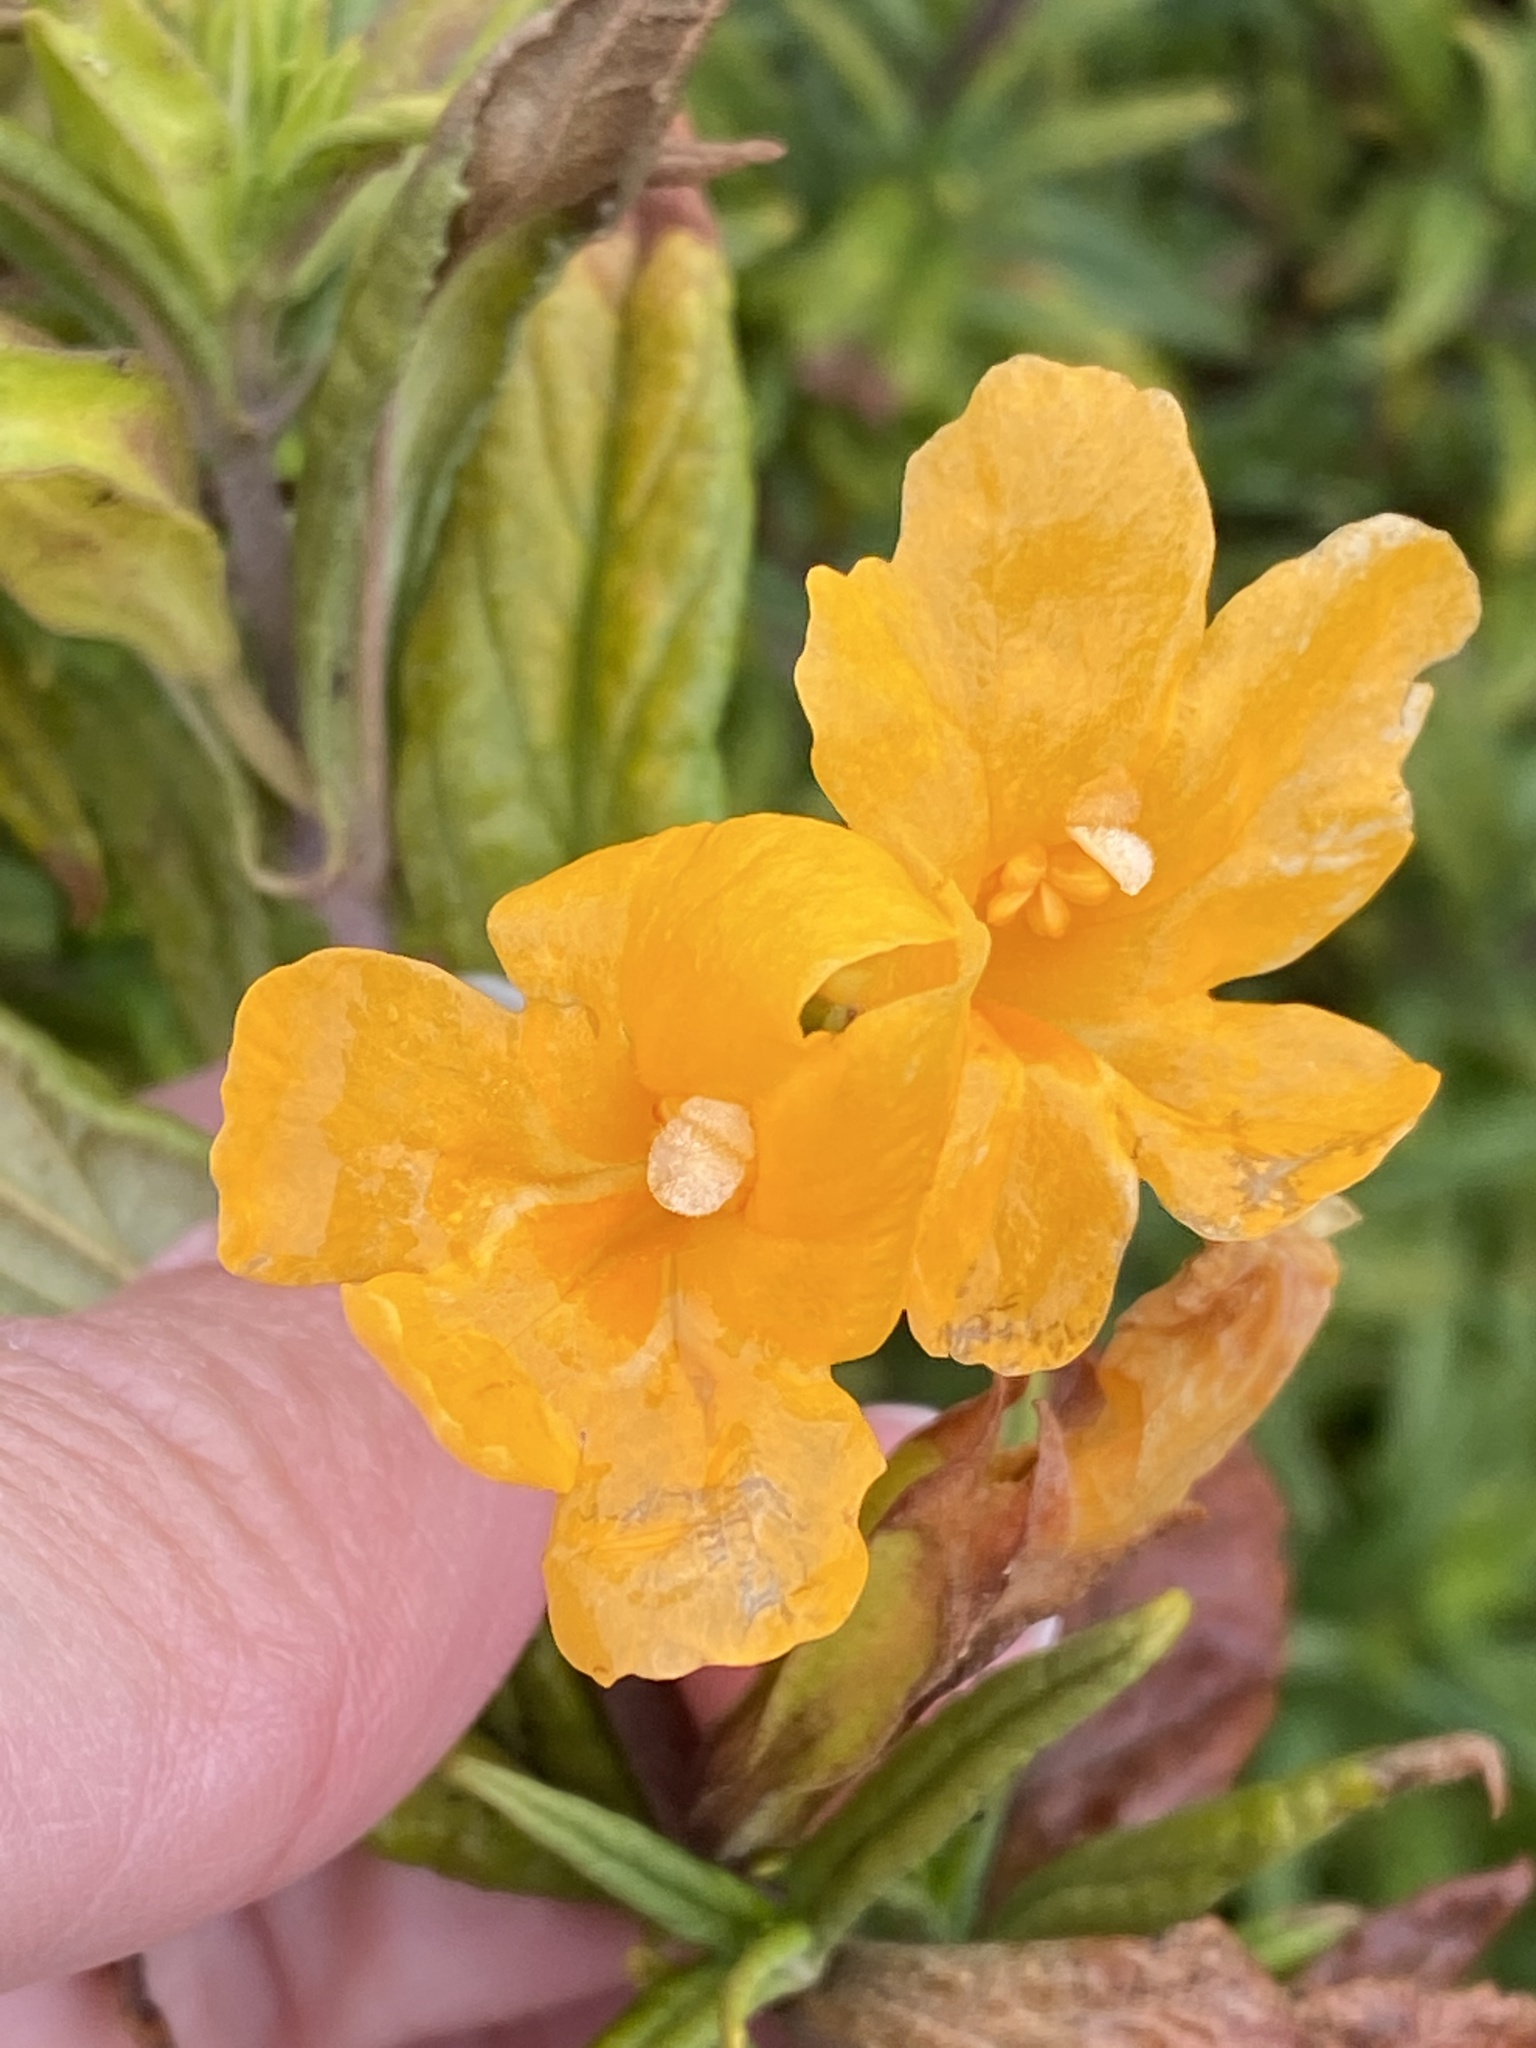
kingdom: Plantae
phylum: Tracheophyta
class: Magnoliopsida
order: Lamiales
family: Phrymaceae
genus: Diplacus
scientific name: Diplacus aurantiacus
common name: Bush monkey-flower
